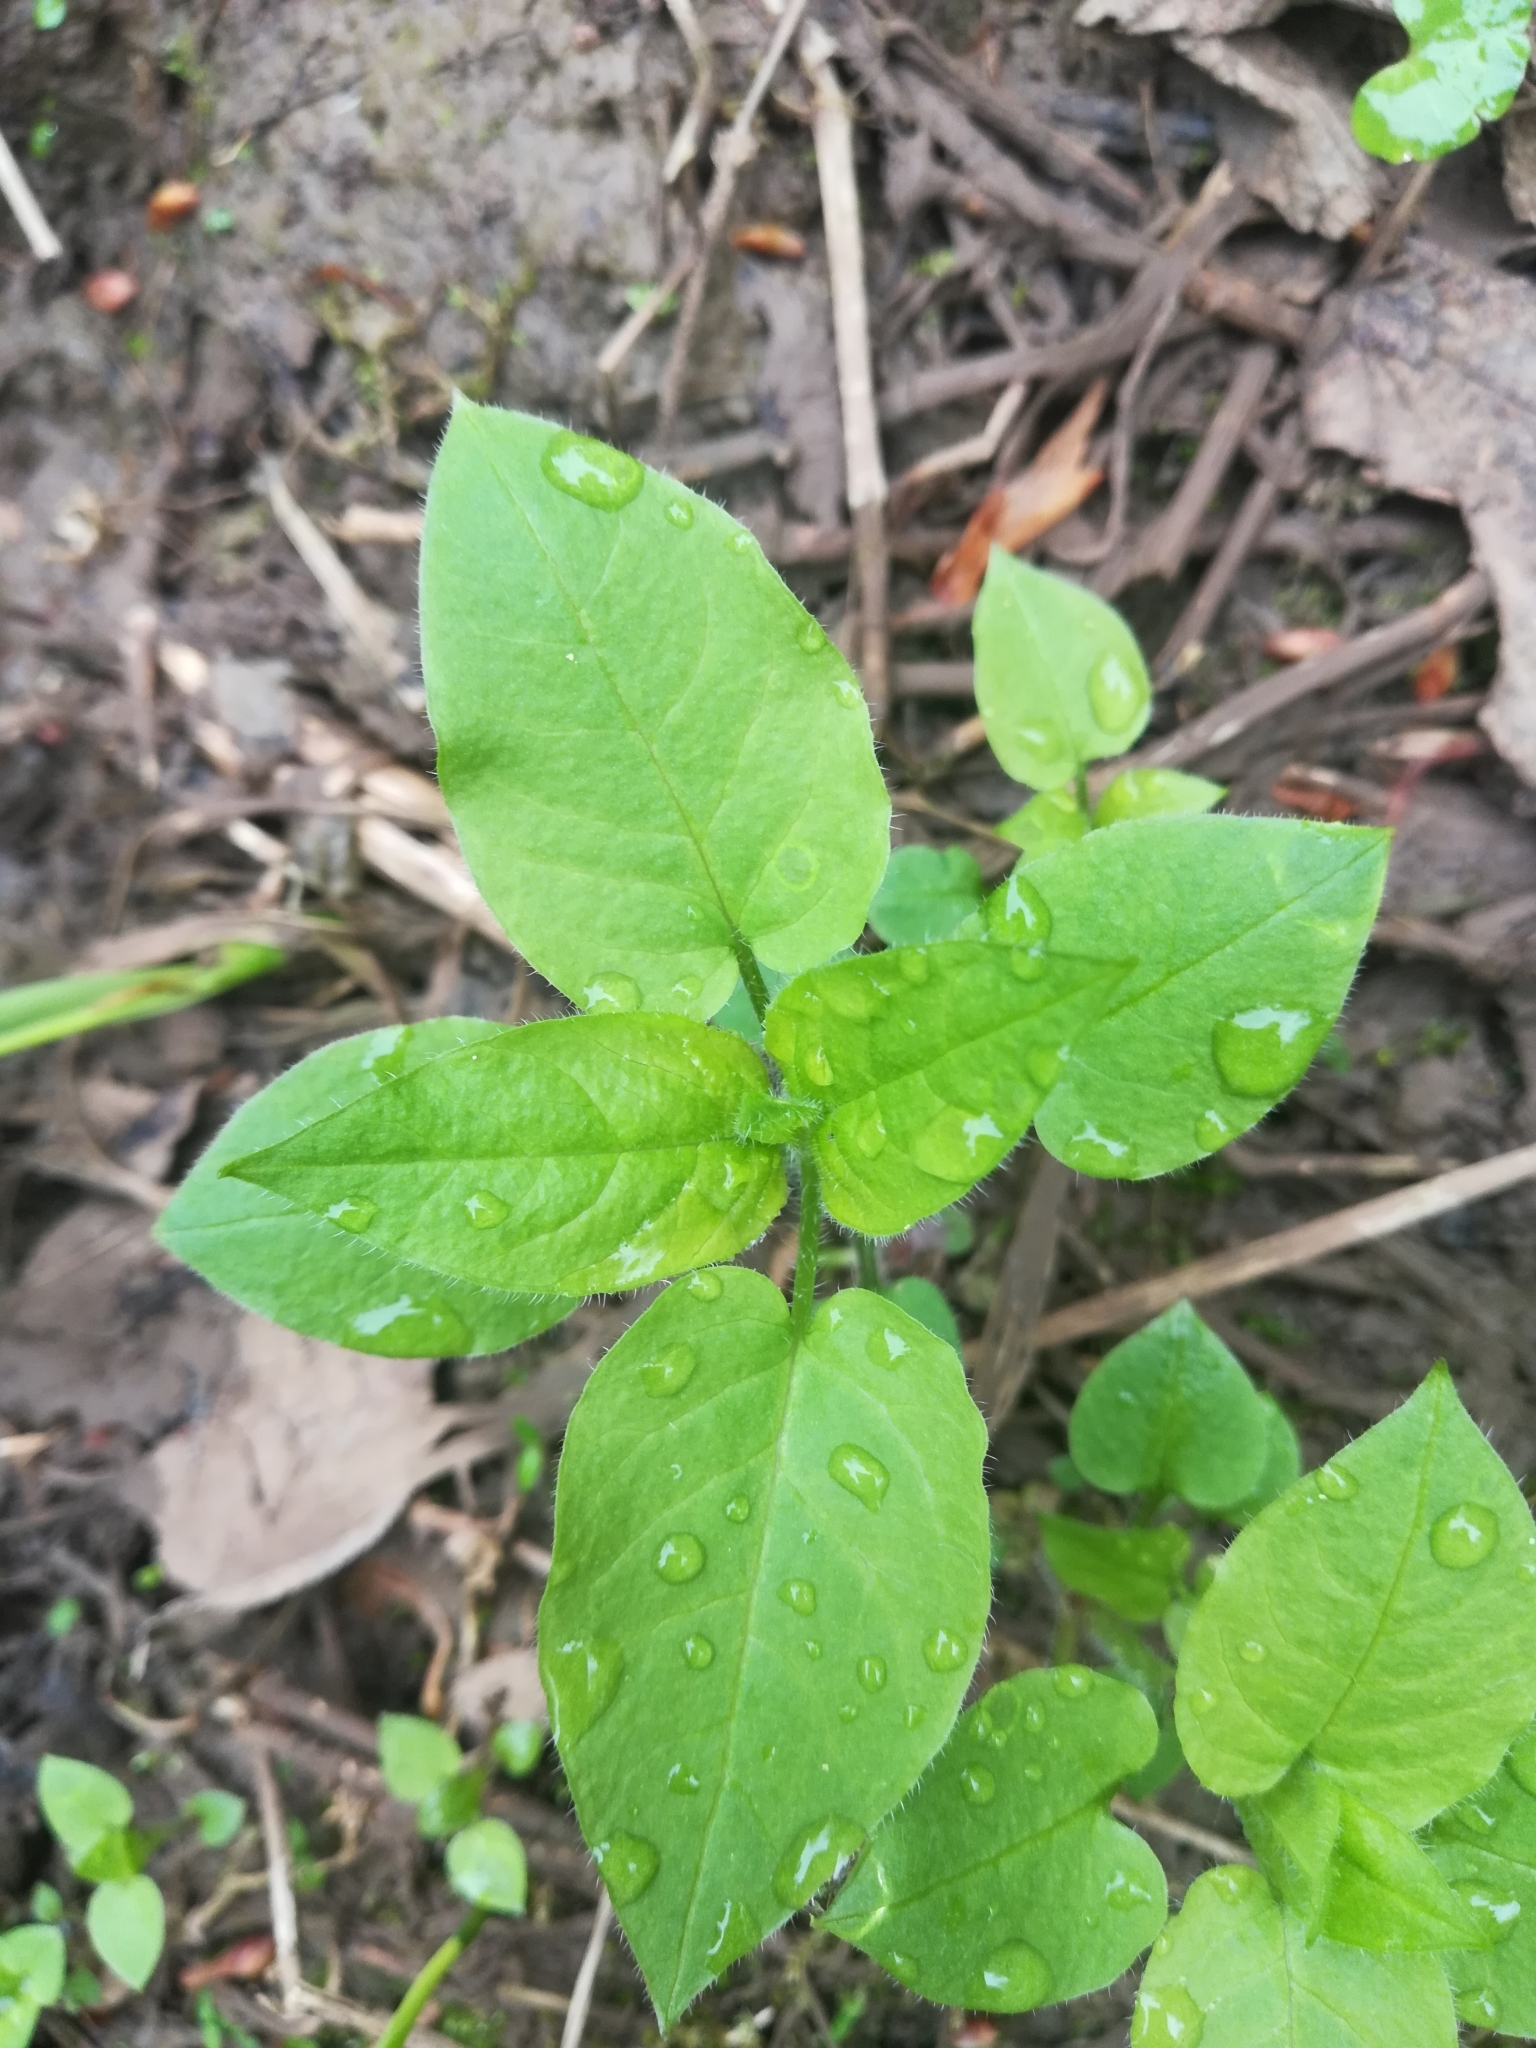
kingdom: Plantae
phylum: Tracheophyta
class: Magnoliopsida
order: Caryophyllales
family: Caryophyllaceae
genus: Stellaria
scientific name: Stellaria nemorum
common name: Wood stitchwort
